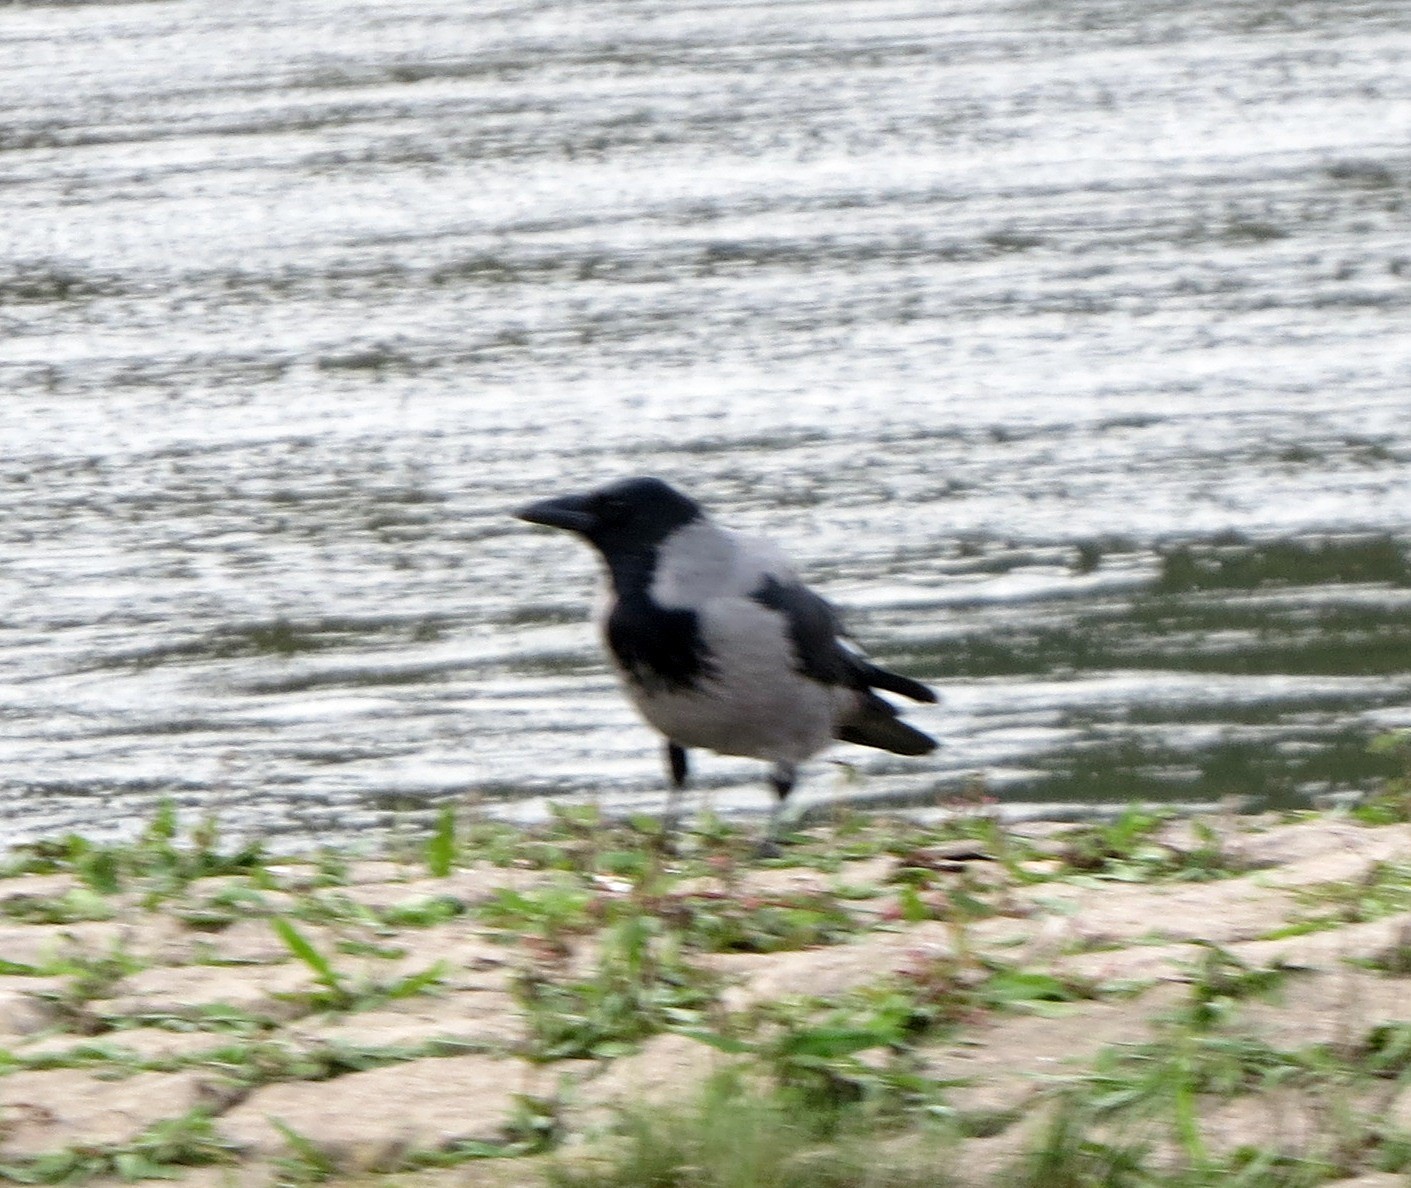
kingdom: Animalia
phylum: Chordata
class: Aves
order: Passeriformes
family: Corvidae
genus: Corvus
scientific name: Corvus cornix
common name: Hooded crow
